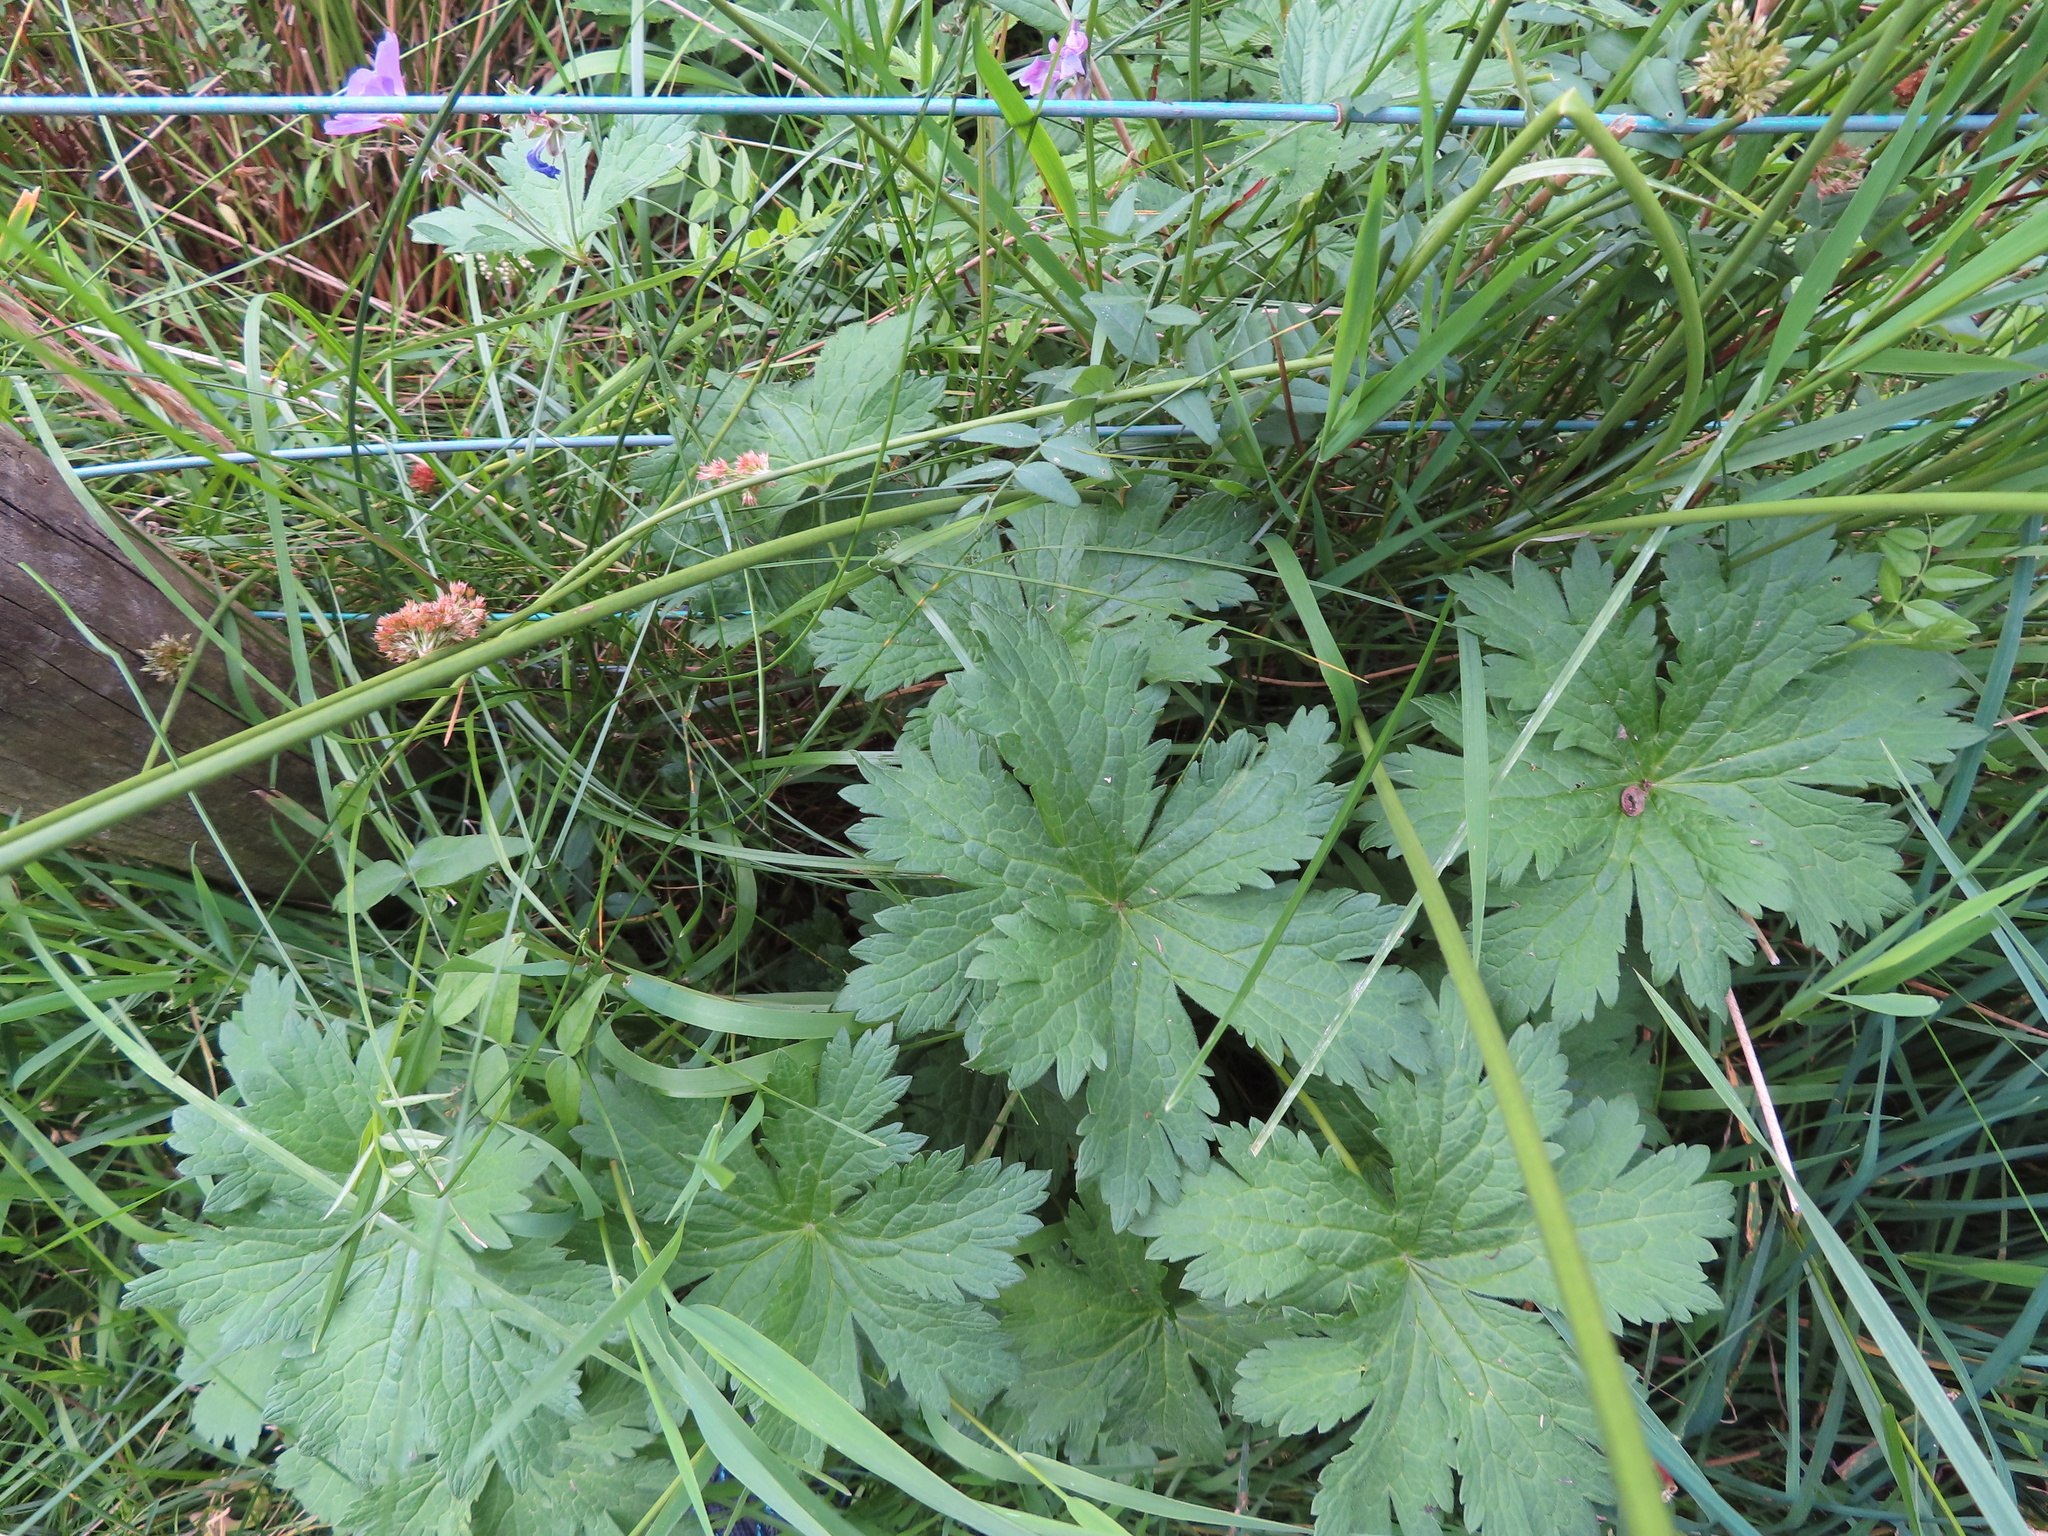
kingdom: Plantae
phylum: Tracheophyta
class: Magnoliopsida
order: Geraniales
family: Geraniaceae
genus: Geranium
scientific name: Geranium sylvaticum
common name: Wood crane's-bill
